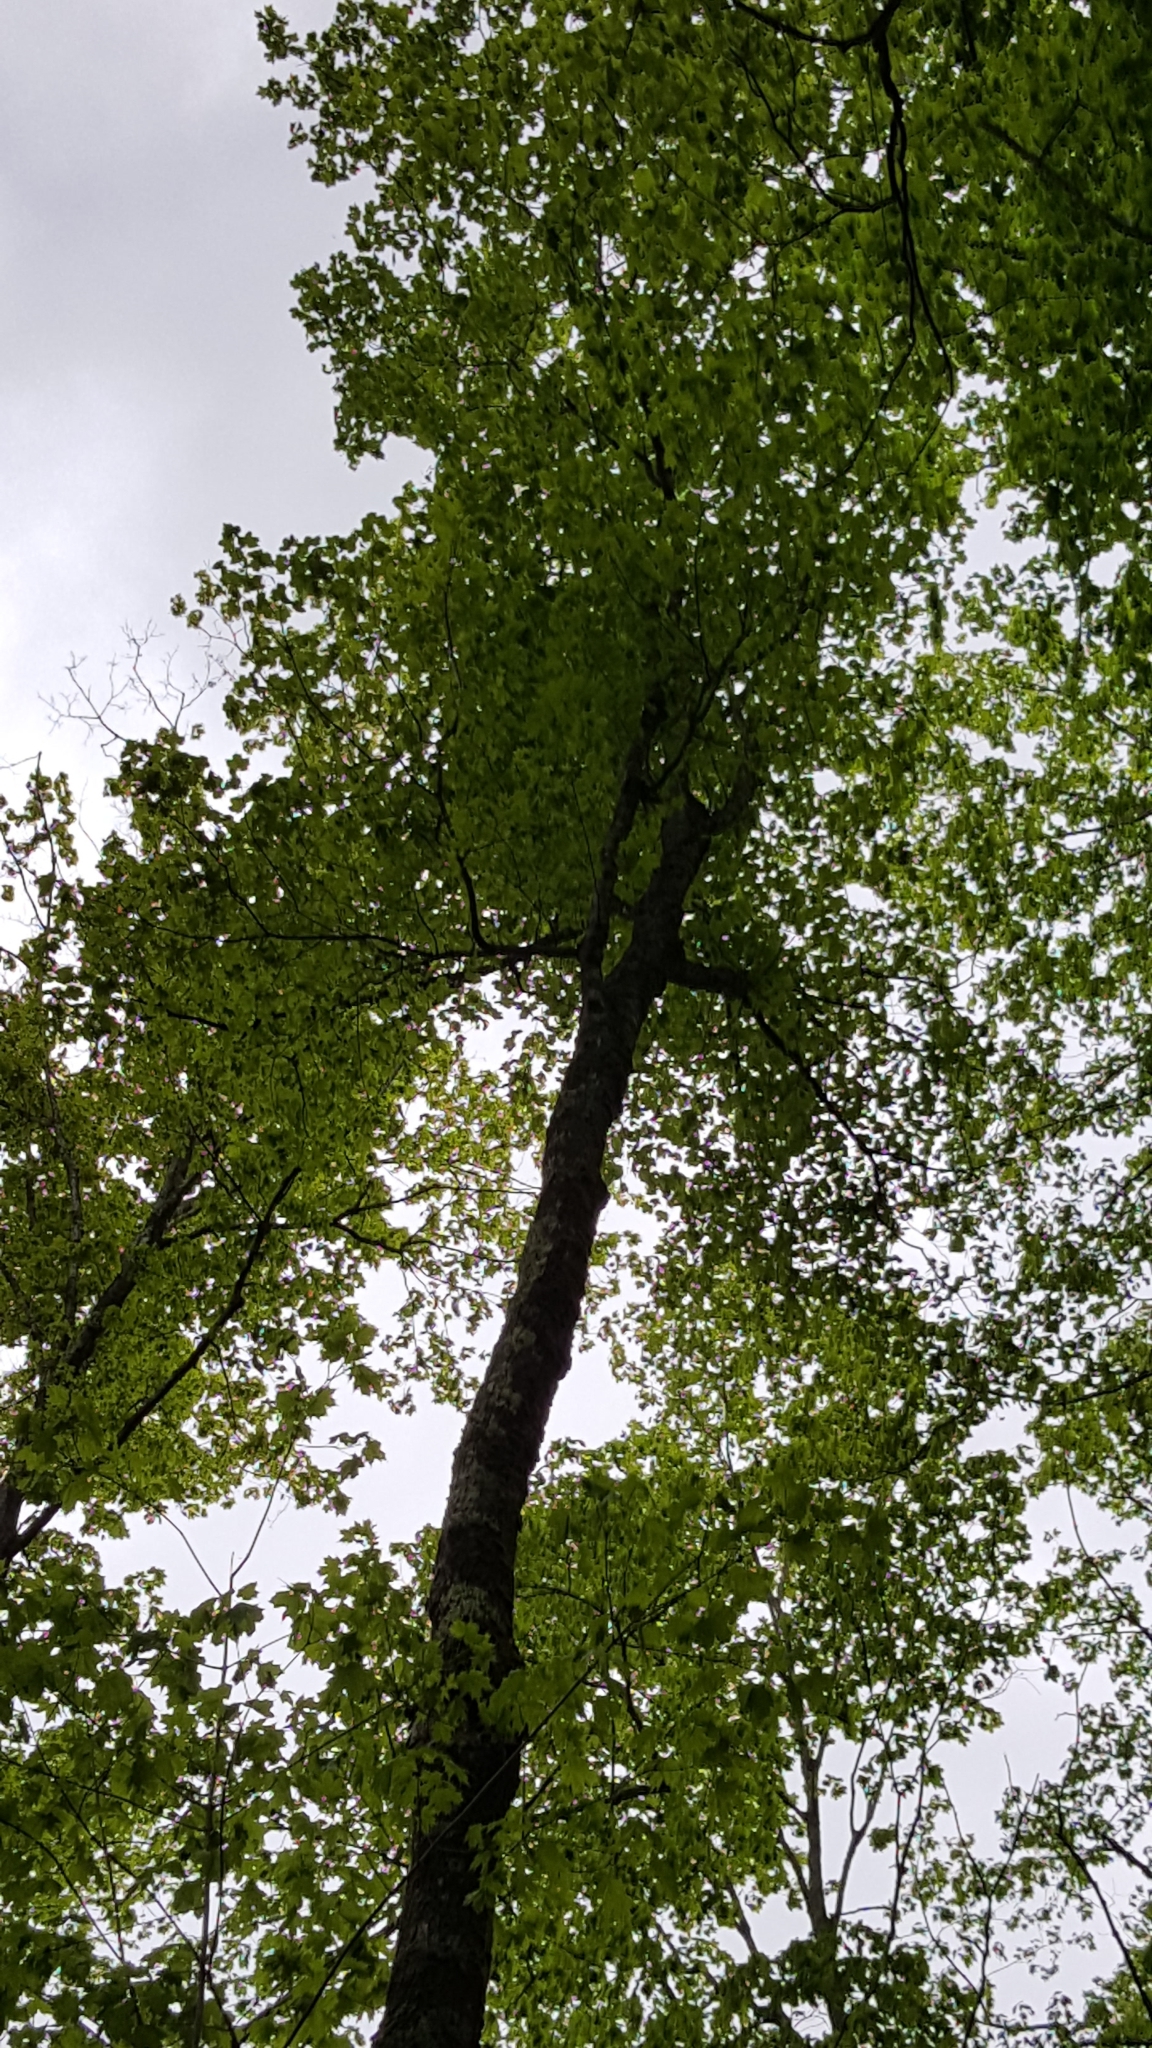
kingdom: Plantae
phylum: Tracheophyta
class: Magnoliopsida
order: Sapindales
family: Sapindaceae
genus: Acer
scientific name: Acer saccharum
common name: Sugar maple
